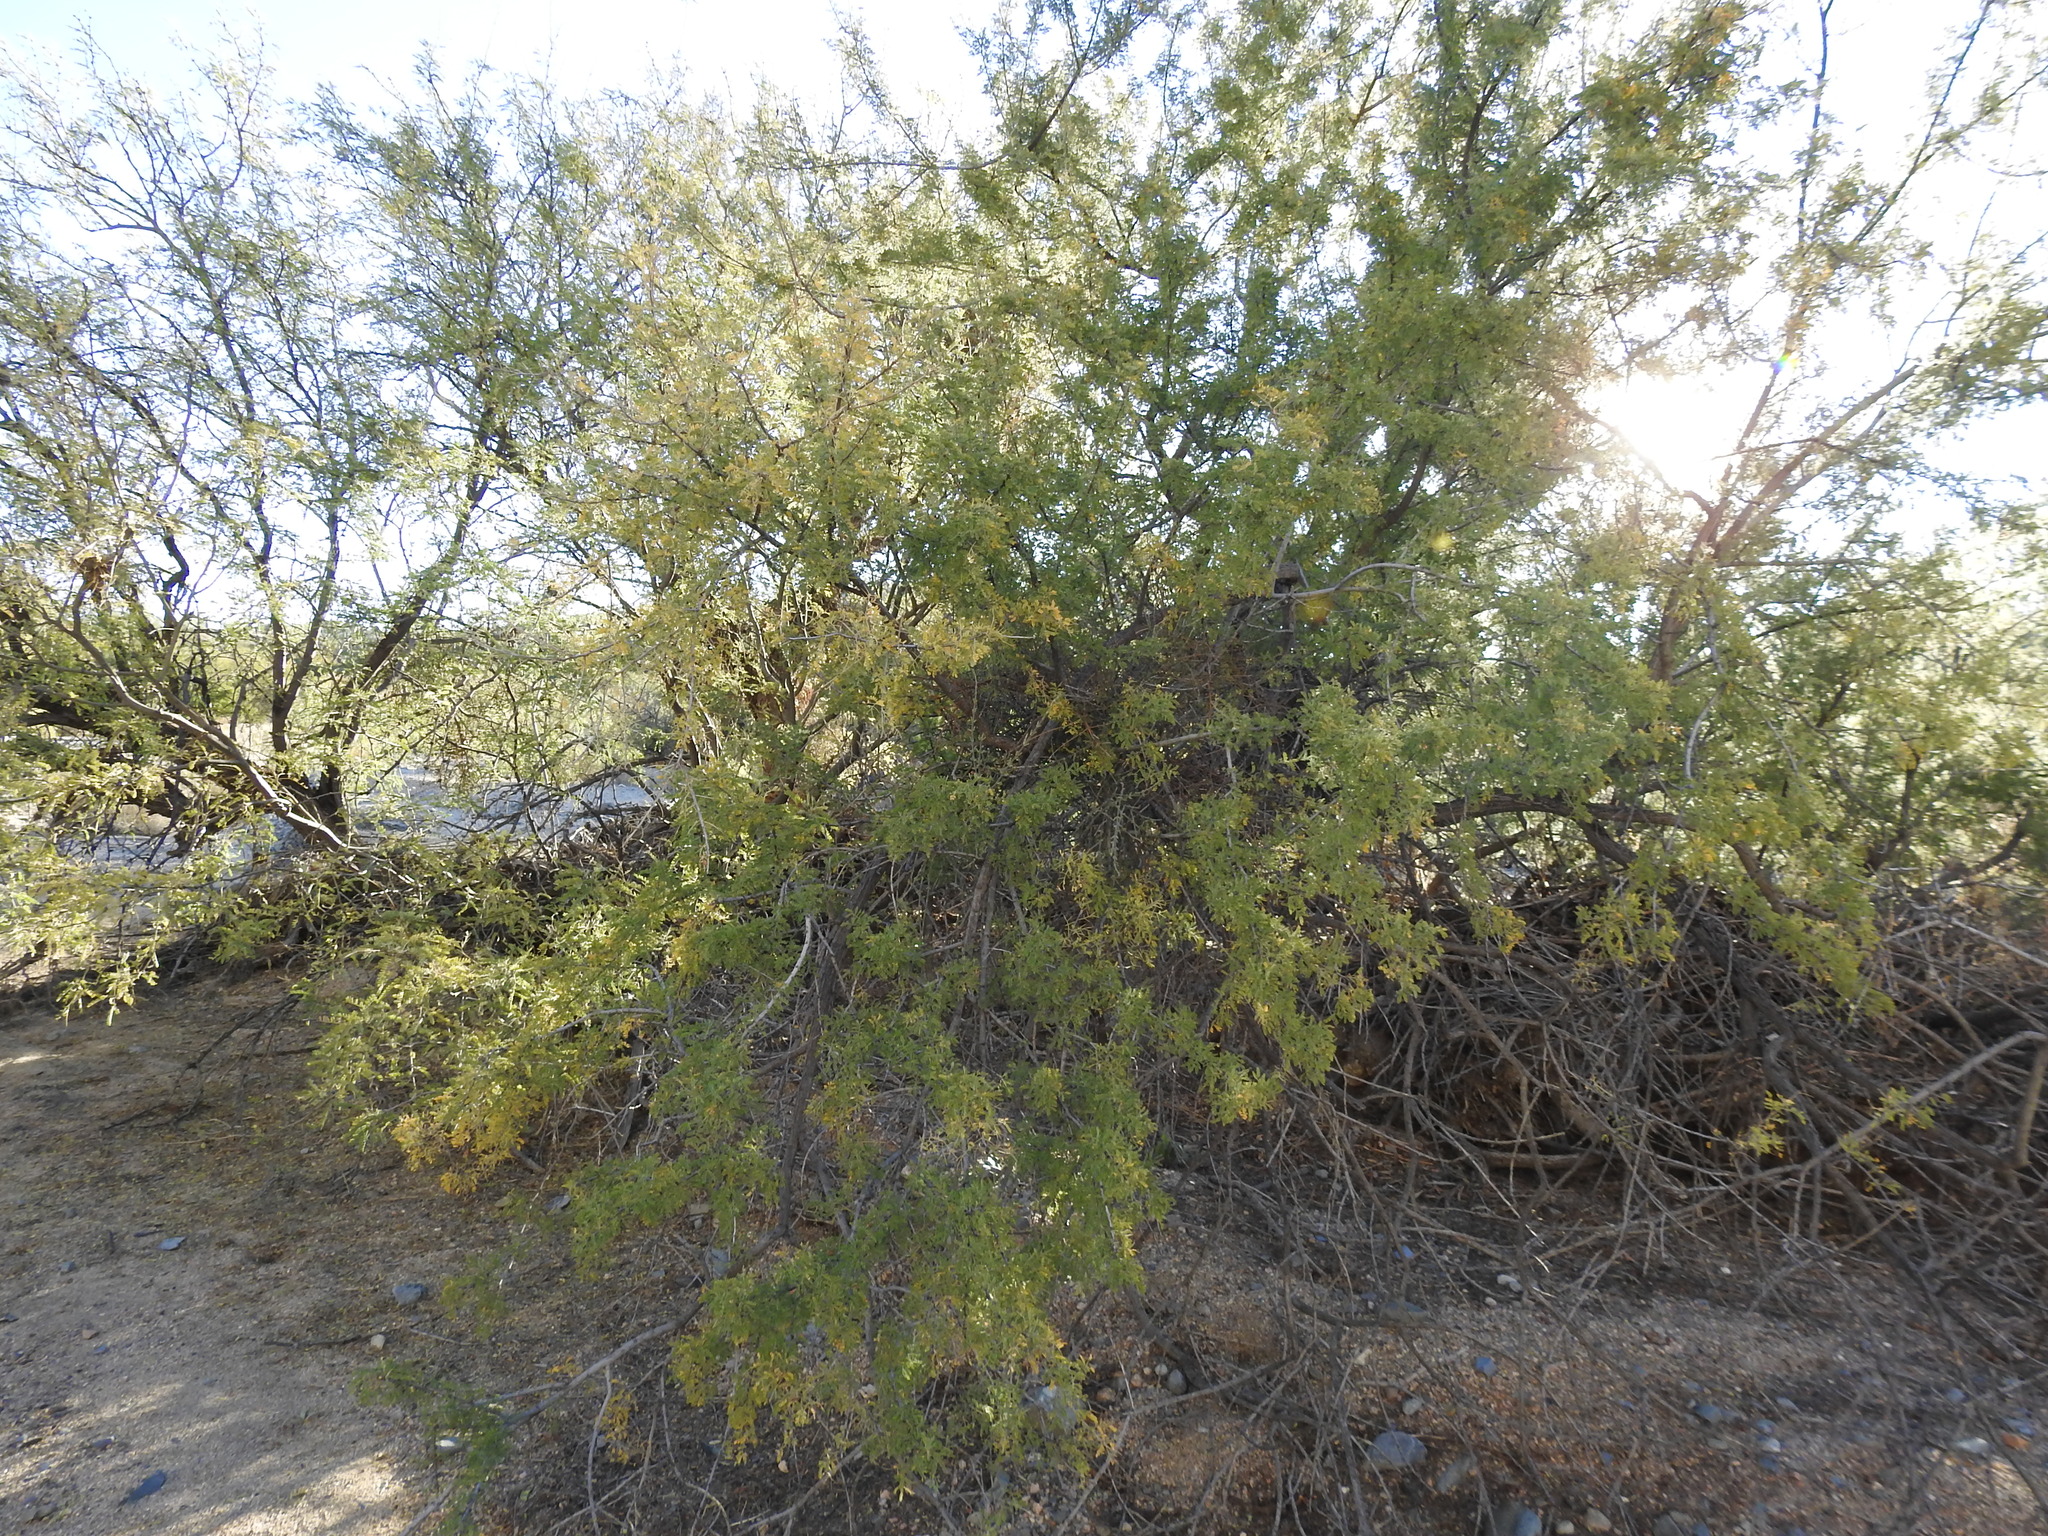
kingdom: Plantae
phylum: Tracheophyta
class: Magnoliopsida
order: Fabales
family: Fabaceae
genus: Olneya
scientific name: Olneya tesota
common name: Desert ironwood
